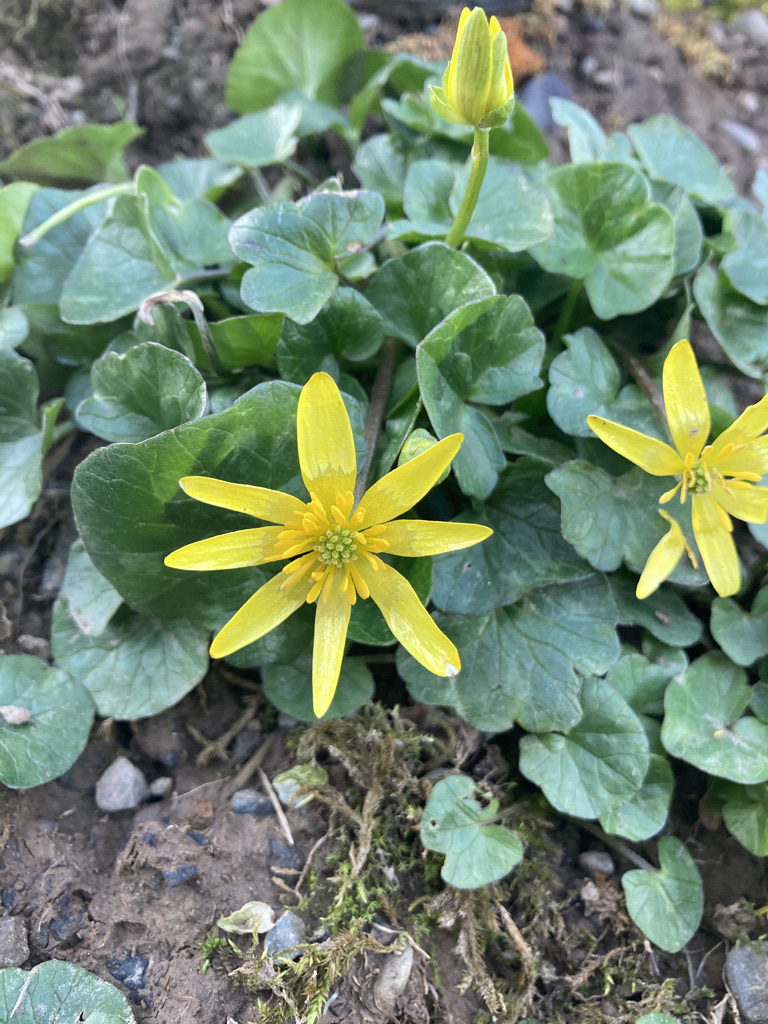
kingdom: Plantae
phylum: Tracheophyta
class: Magnoliopsida
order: Ranunculales
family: Ranunculaceae
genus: Ficaria
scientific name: Ficaria verna
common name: Lesser celandine
